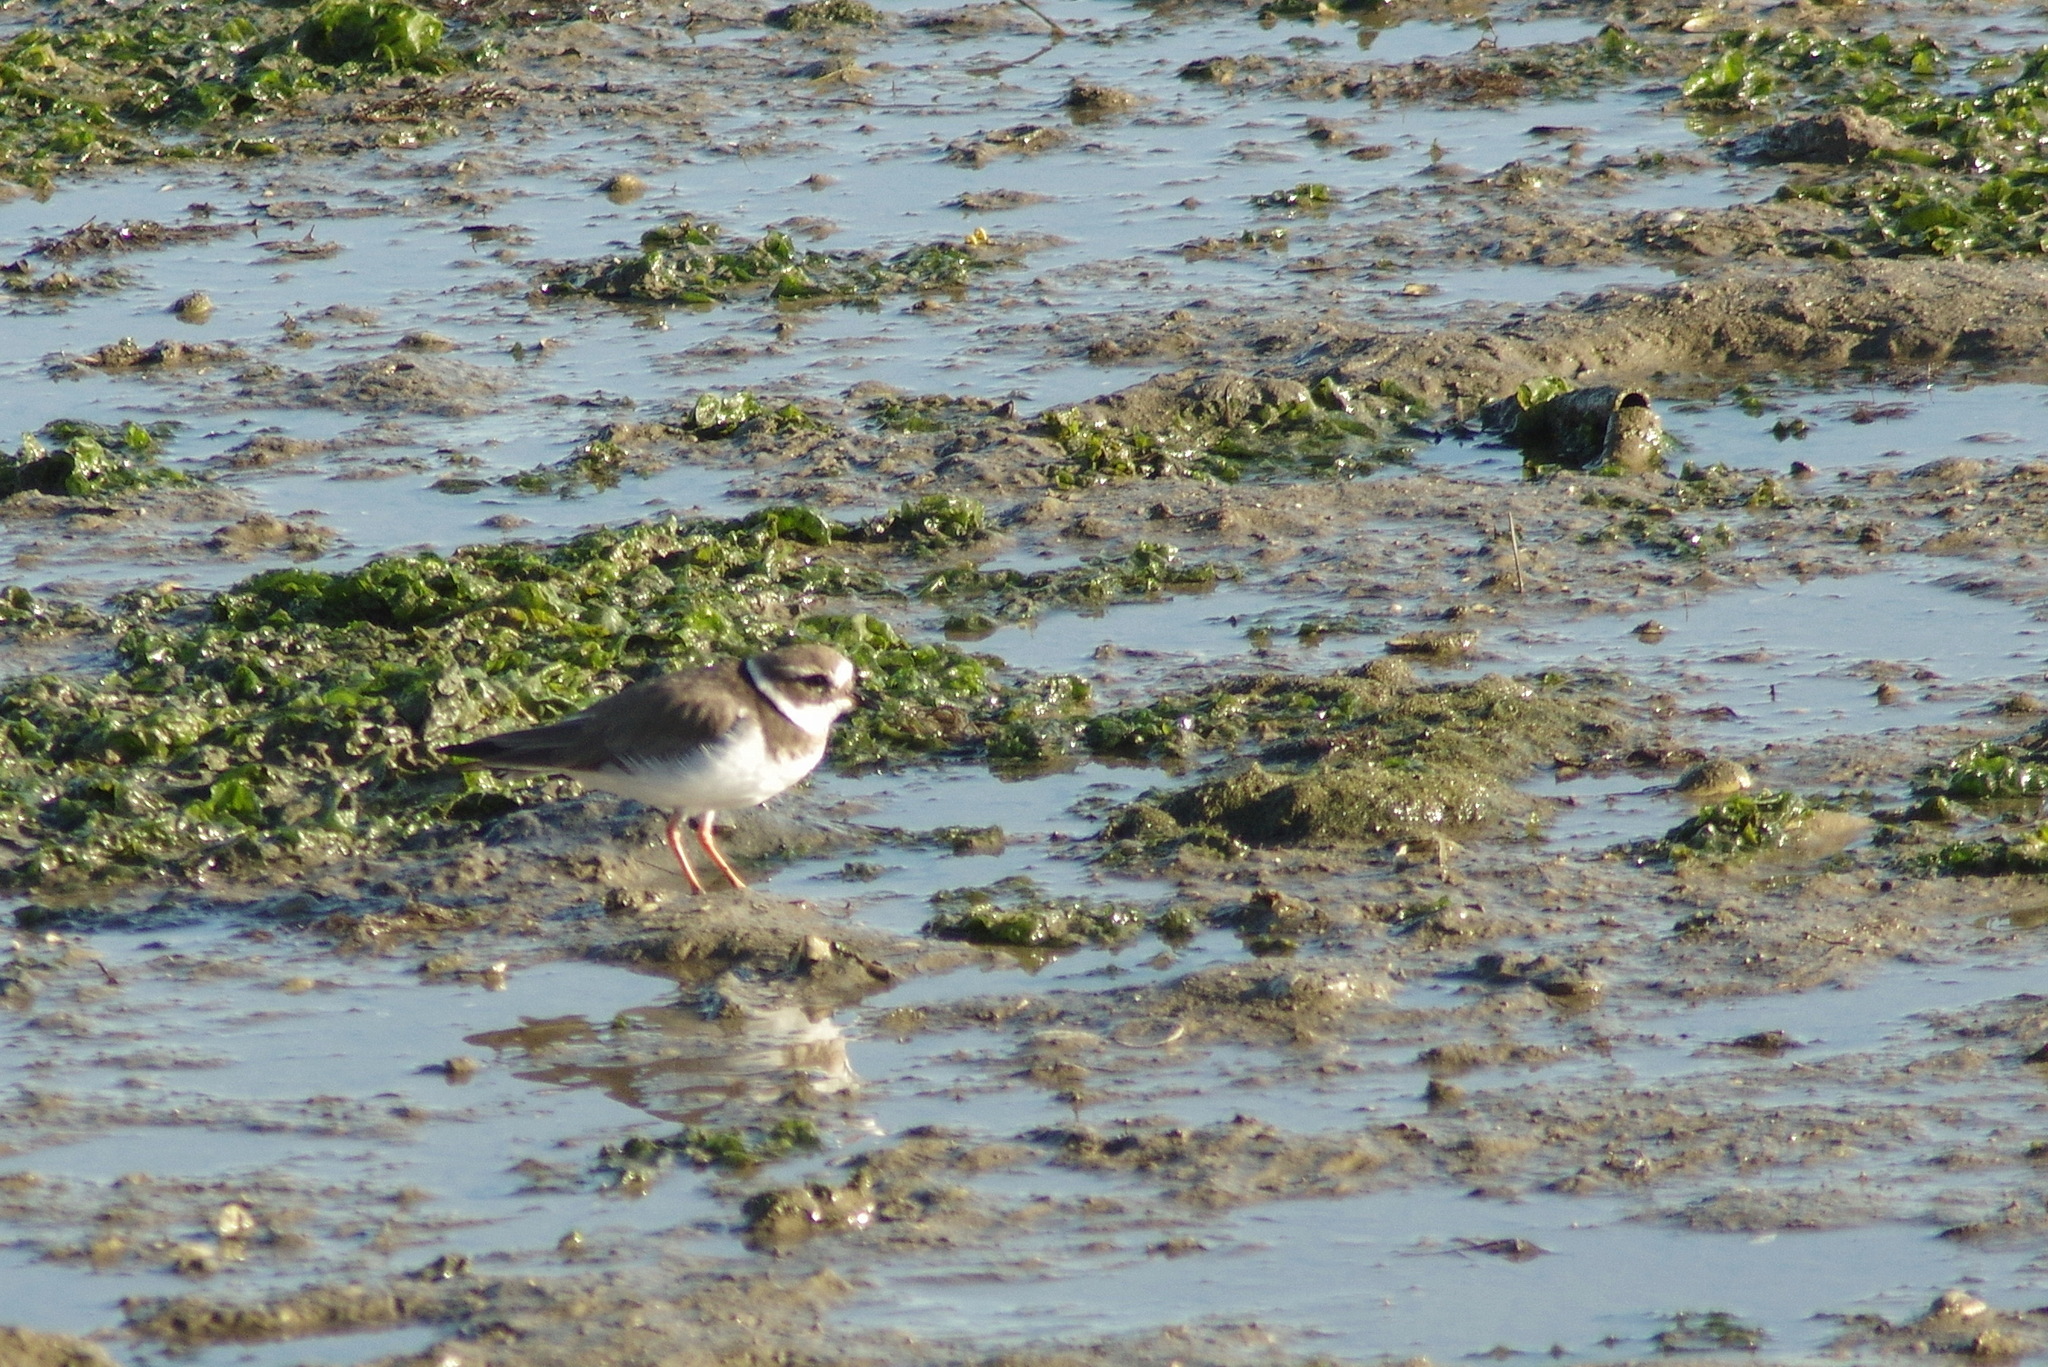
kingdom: Animalia
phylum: Chordata
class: Aves
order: Charadriiformes
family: Charadriidae
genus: Charadrius
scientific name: Charadrius hiaticula
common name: Common ringed plover
